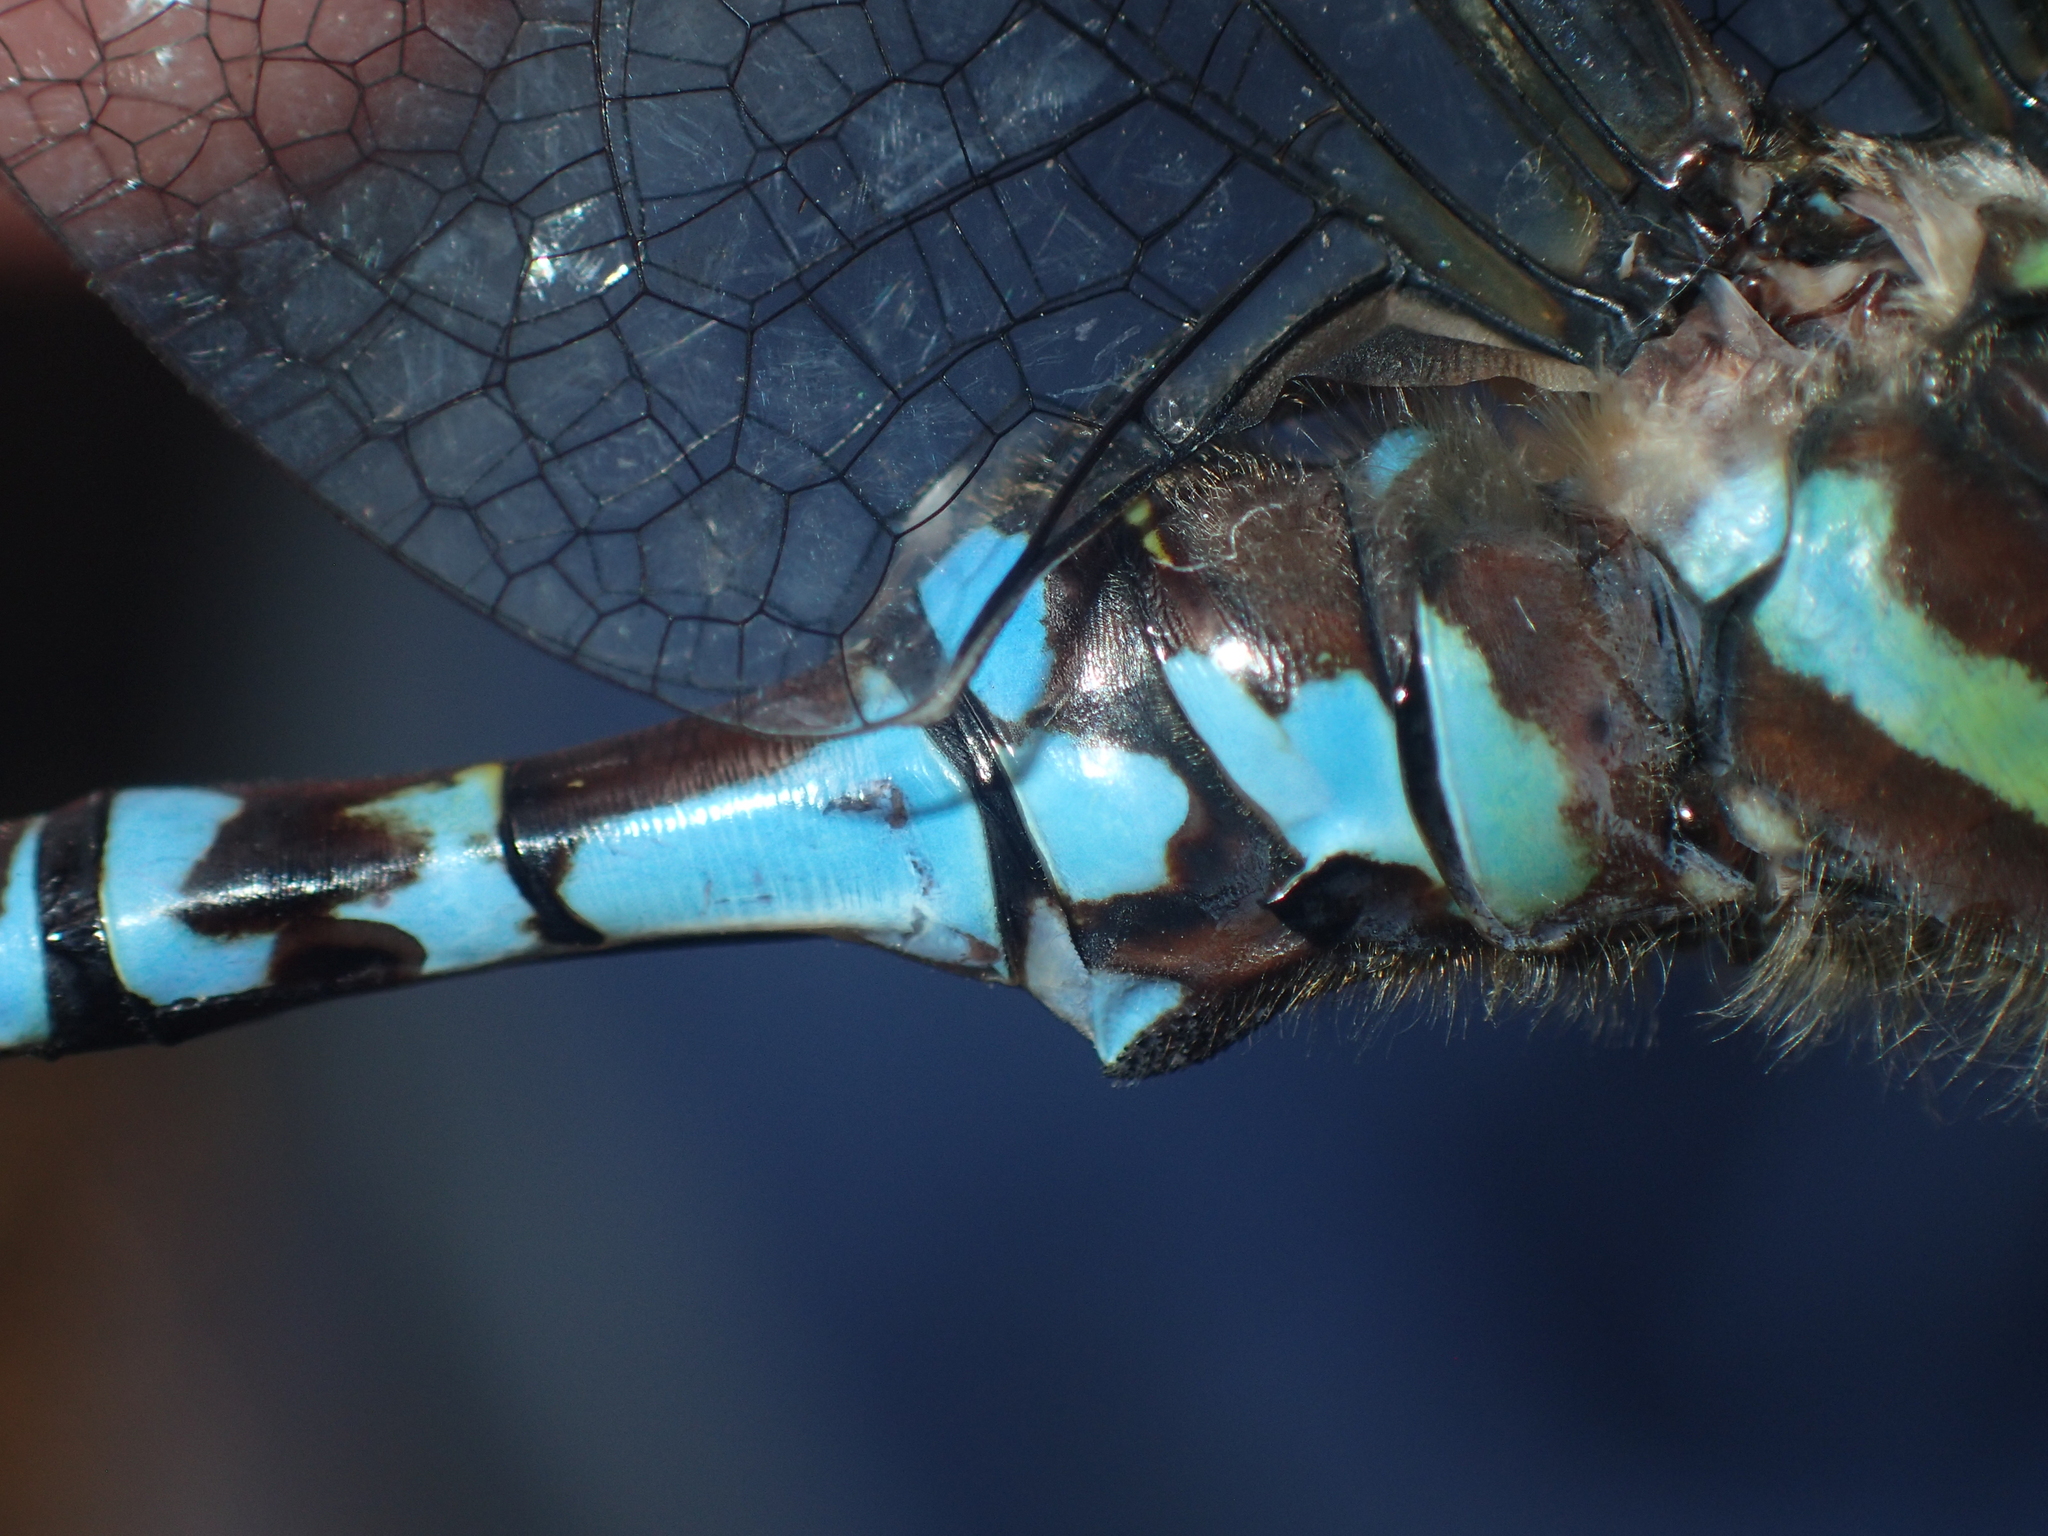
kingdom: Animalia
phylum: Arthropoda
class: Insecta
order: Odonata
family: Aeshnidae
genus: Aeshna
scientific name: Aeshna verticalis
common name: Green-striped darner
